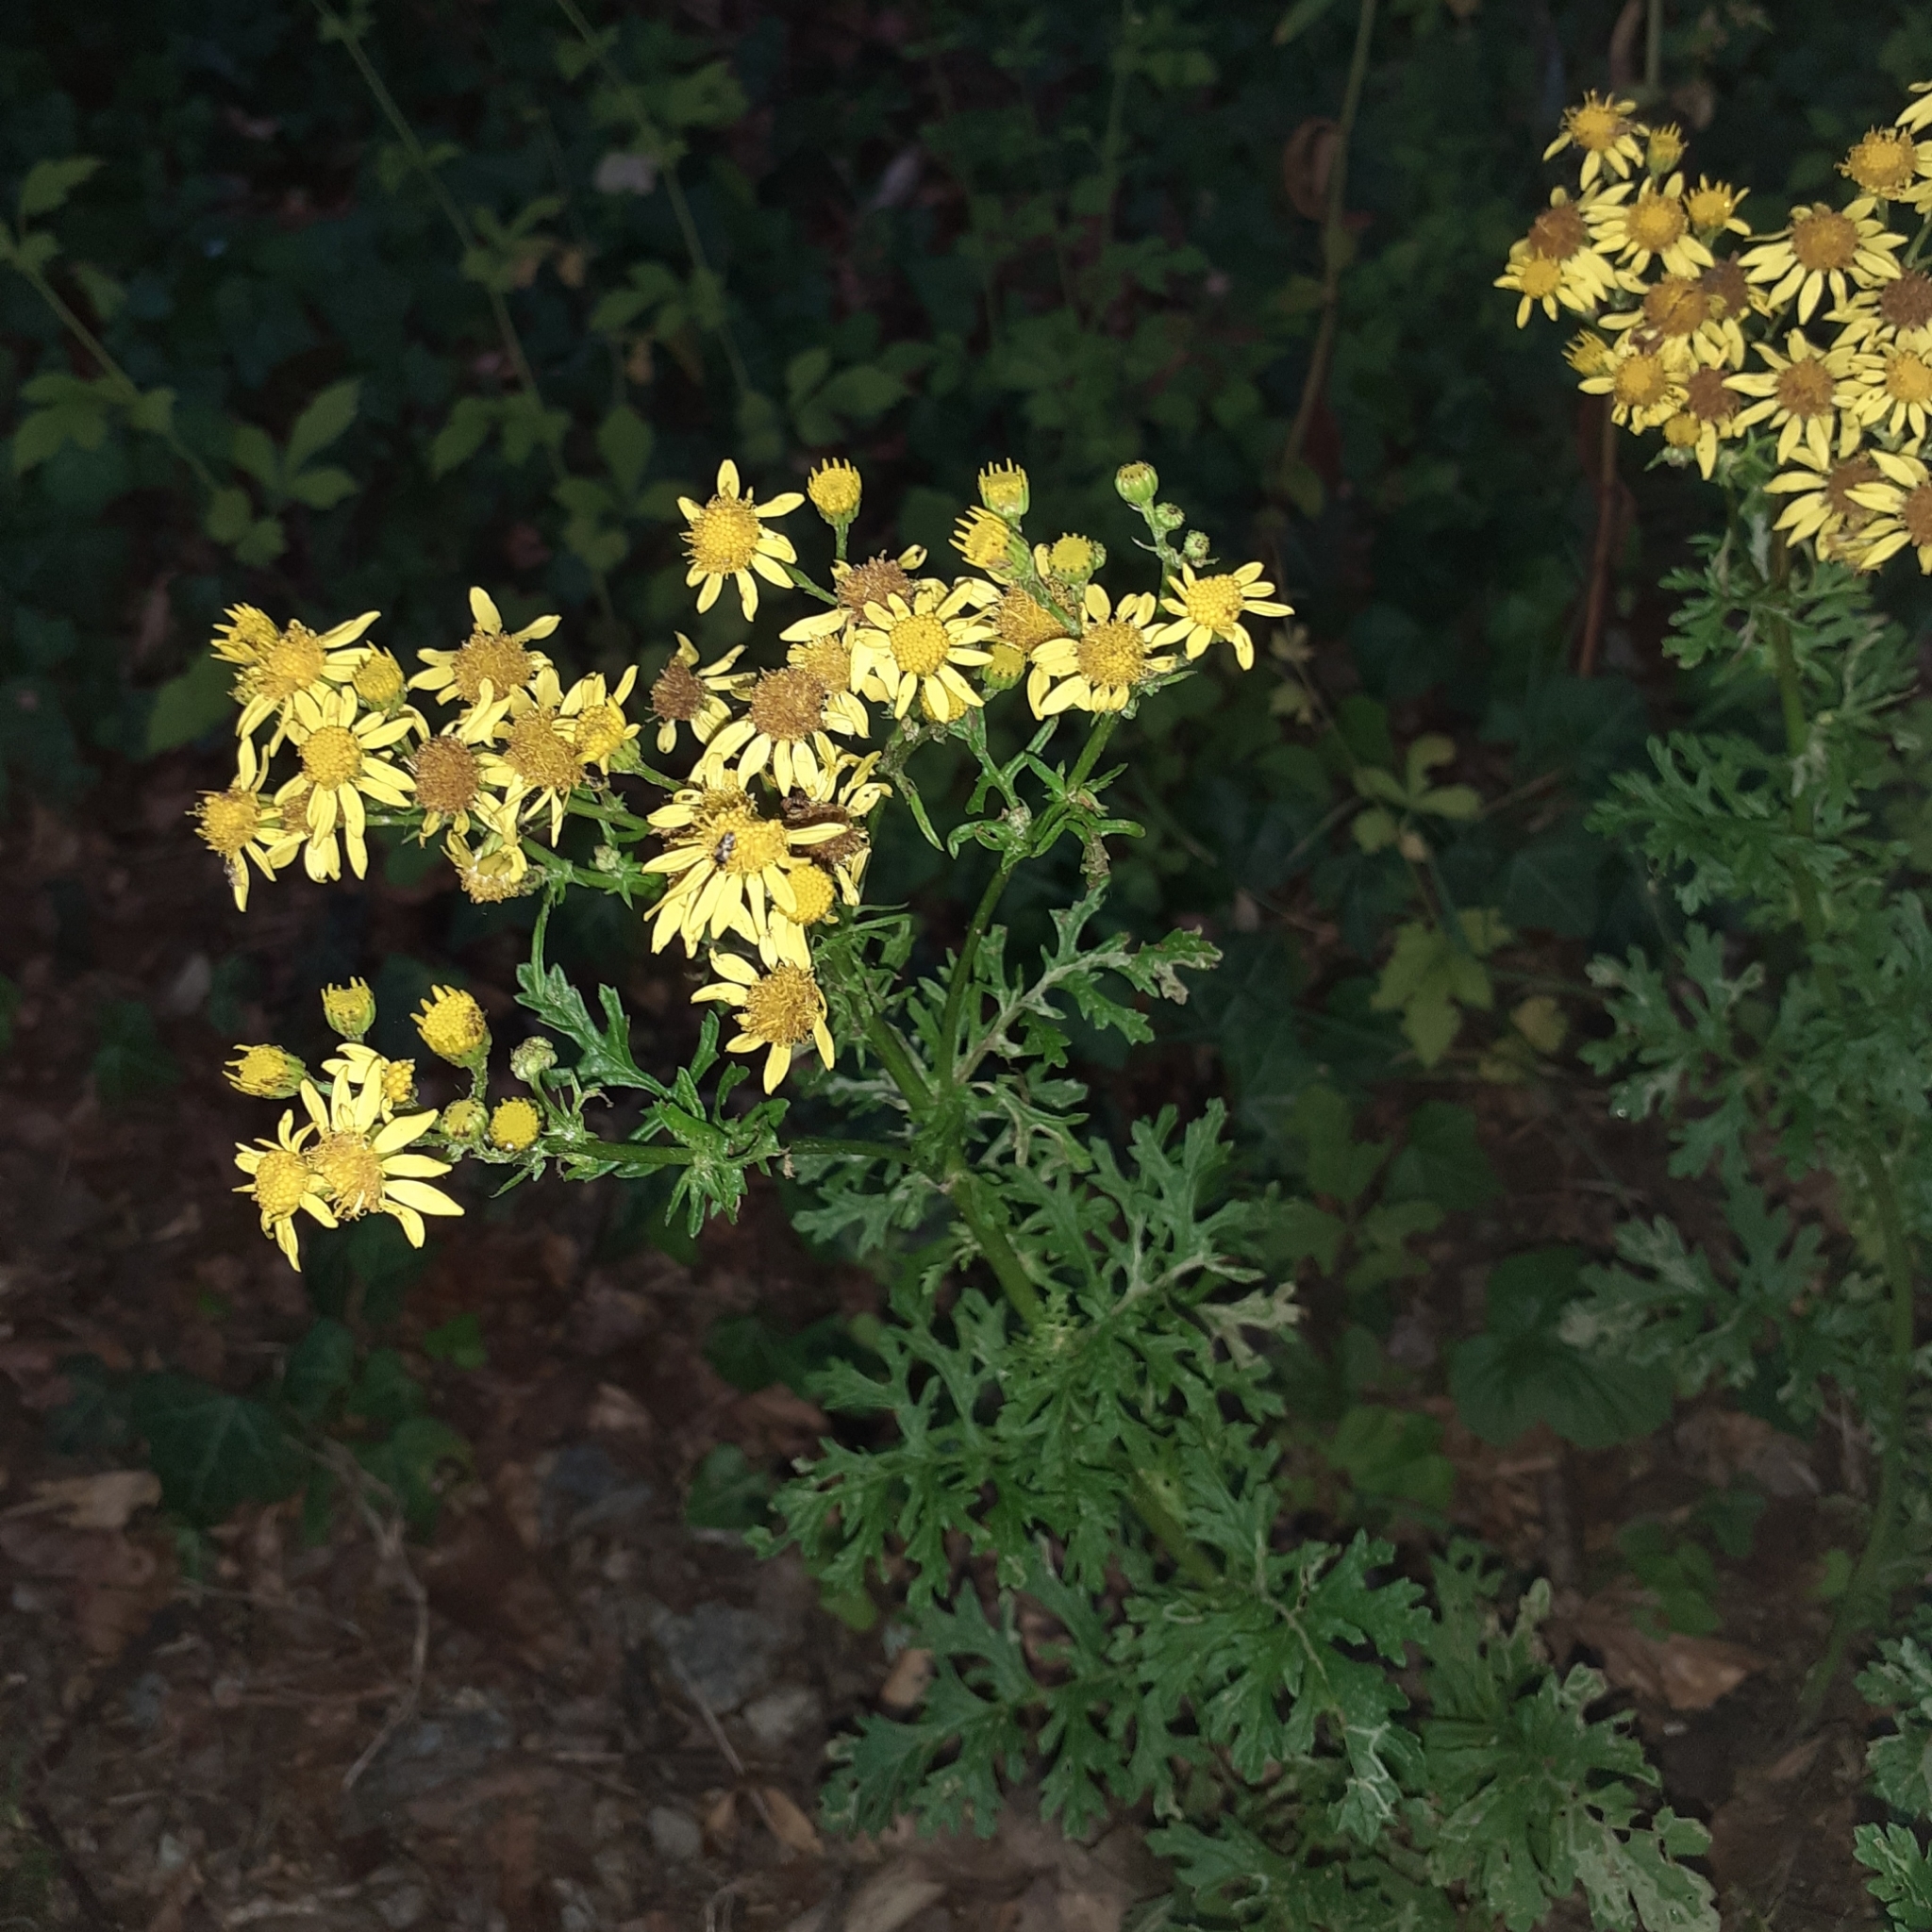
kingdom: Plantae
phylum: Tracheophyta
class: Magnoliopsida
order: Asterales
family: Asteraceae
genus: Jacobaea
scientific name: Jacobaea vulgaris
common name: Stinking willie
